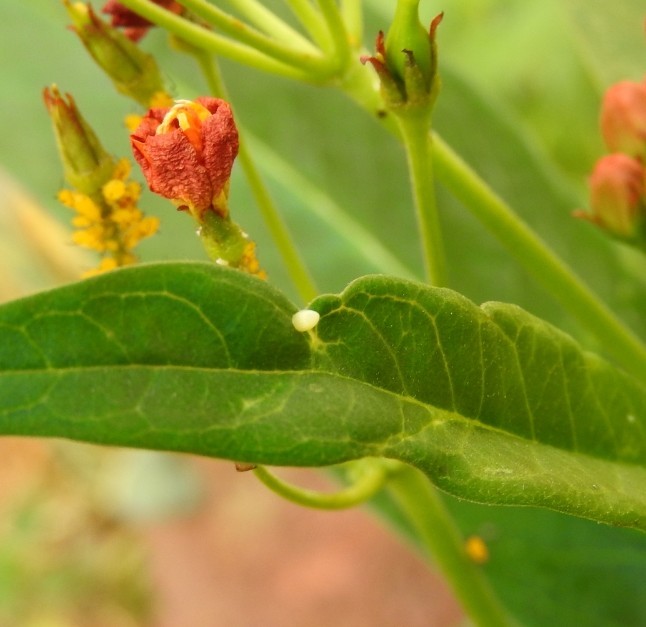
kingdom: Animalia
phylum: Arthropoda
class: Insecta
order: Lepidoptera
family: Nymphalidae
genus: Danaus
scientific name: Danaus plexippus
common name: Monarch
